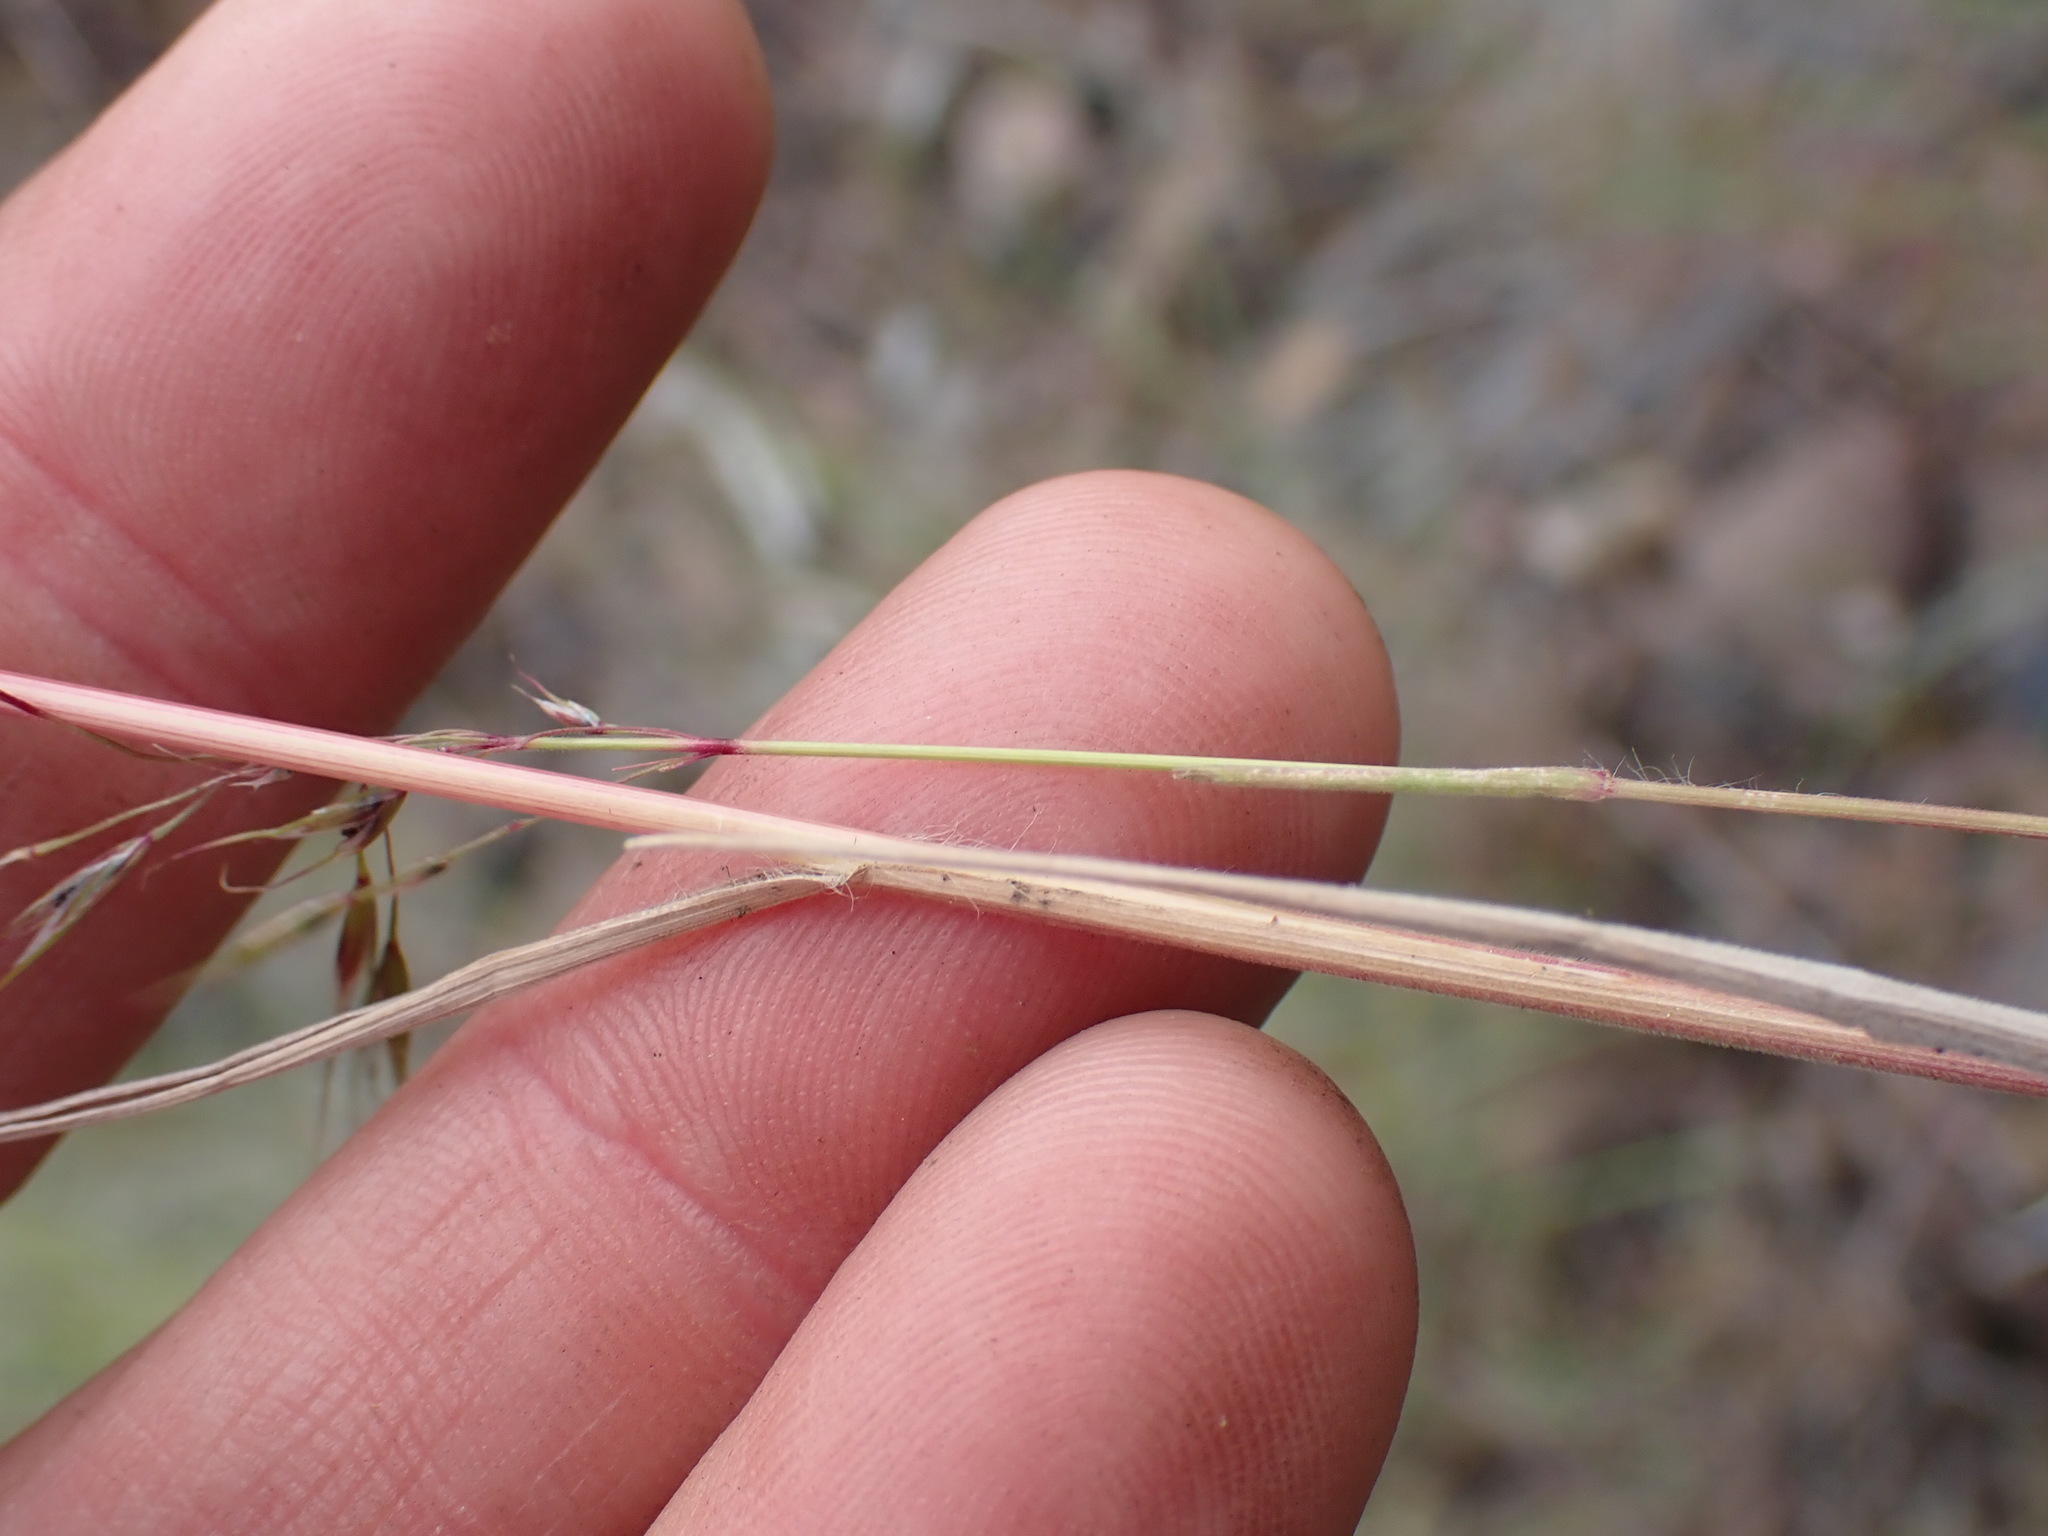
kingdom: Plantae
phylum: Tracheophyta
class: Liliopsida
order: Poales
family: Poaceae
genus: Bromus
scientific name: Bromus tectorum
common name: Cheatgrass
